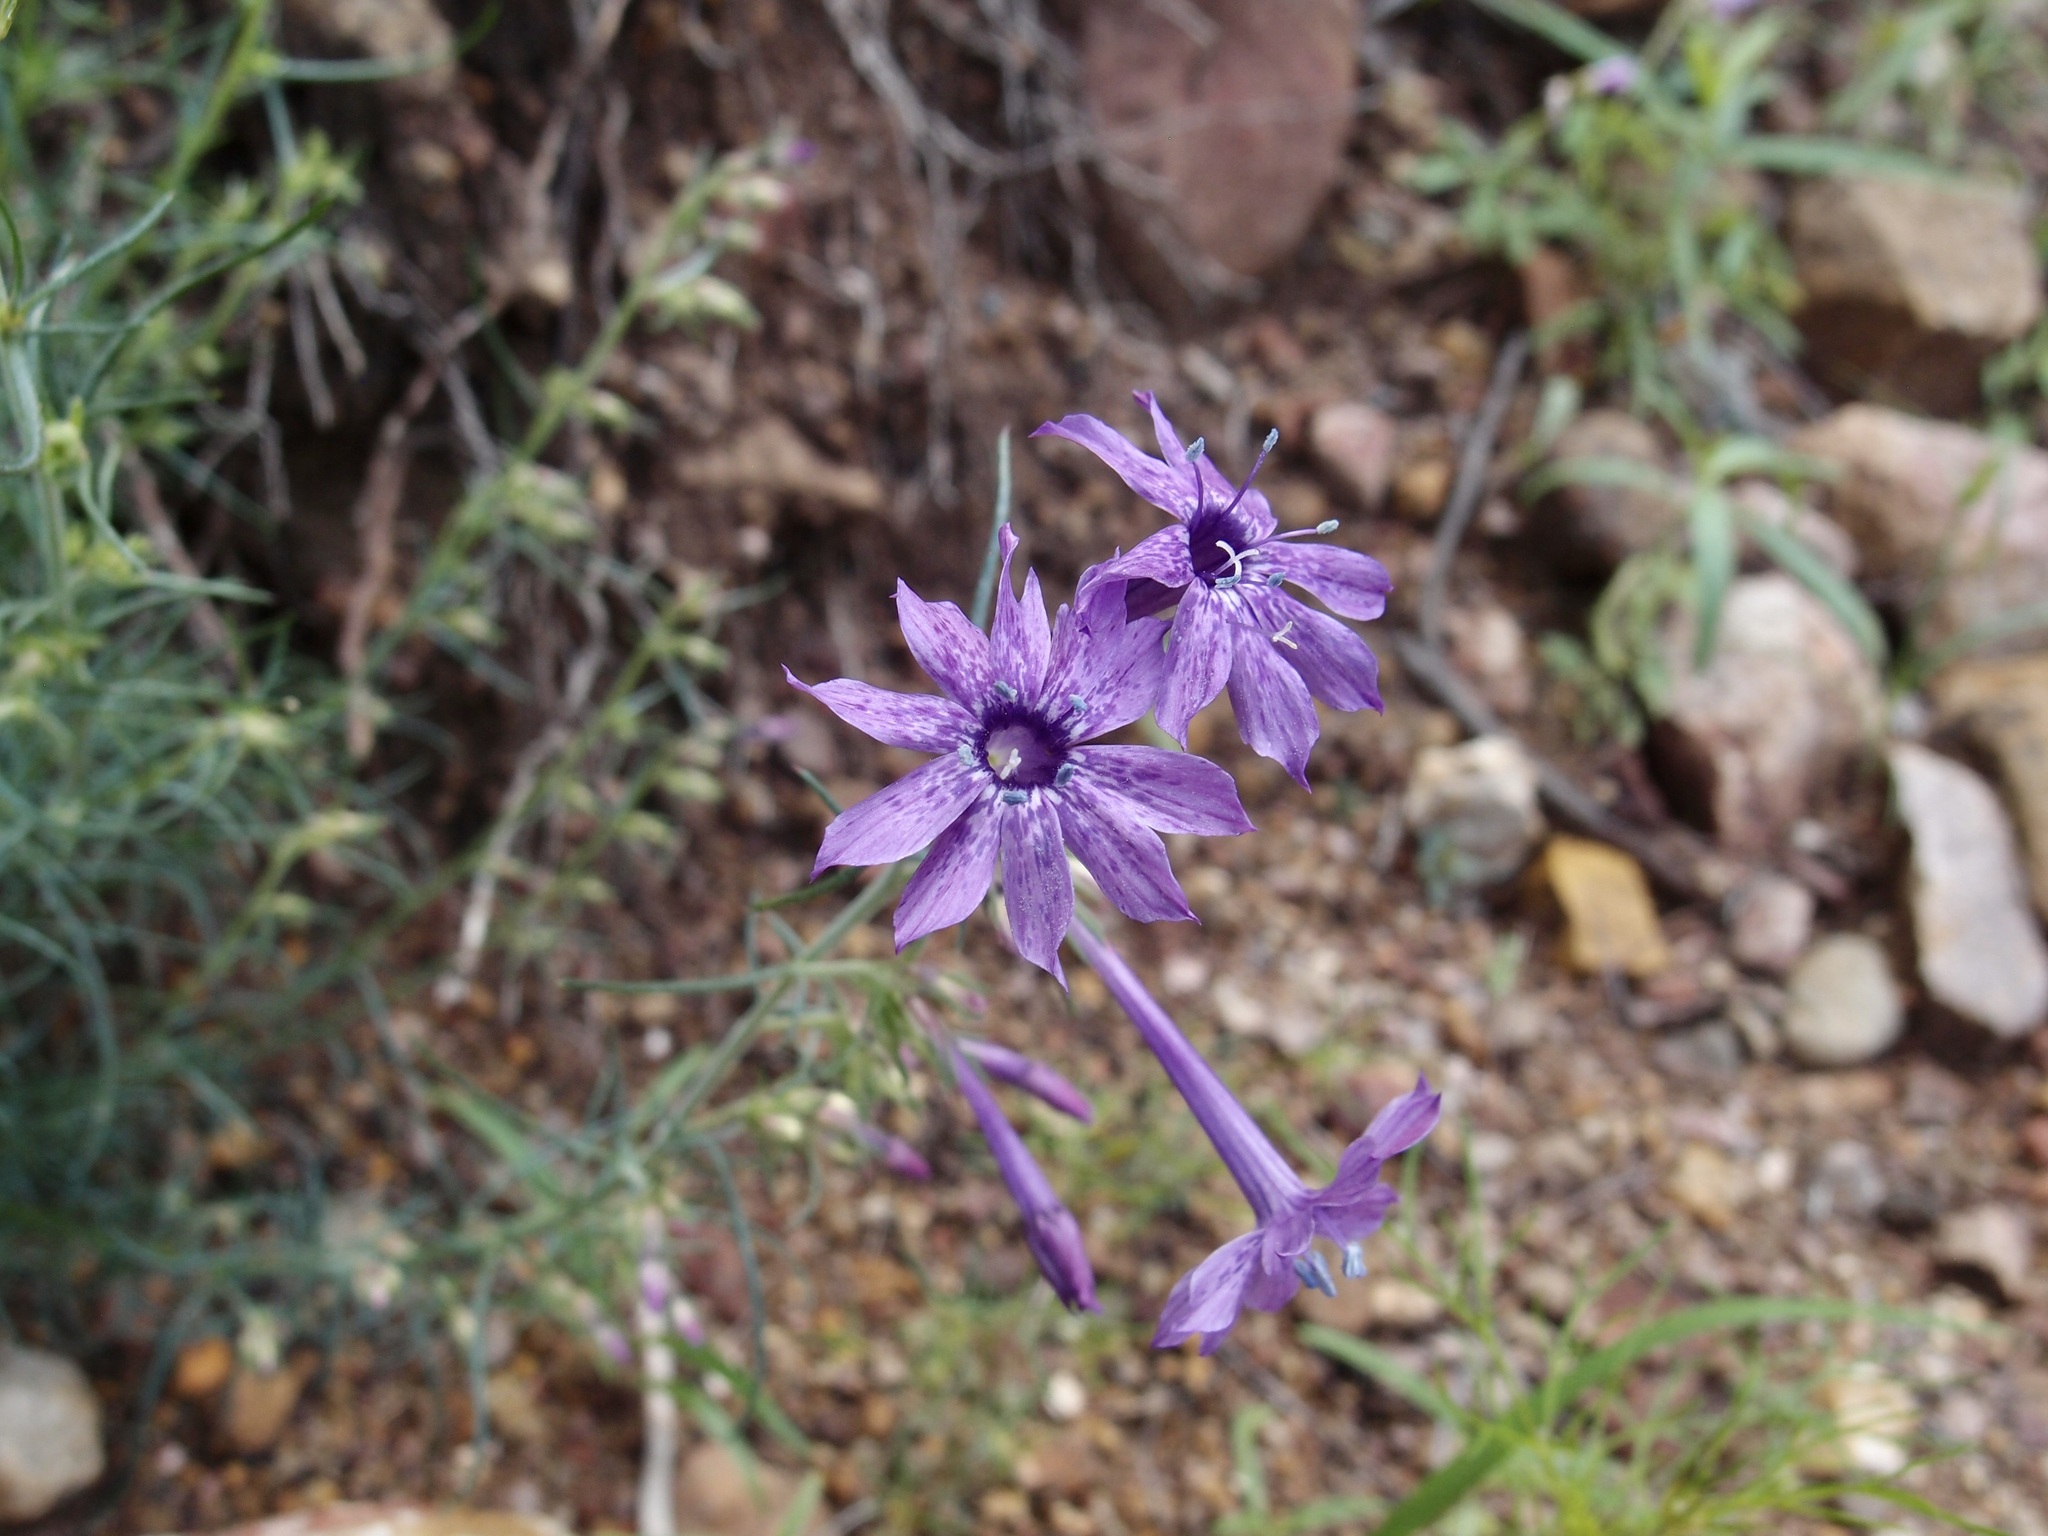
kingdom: Plantae
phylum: Tracheophyta
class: Magnoliopsida
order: Ericales
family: Polemoniaceae
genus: Ipomopsis
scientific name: Ipomopsis thurberi
